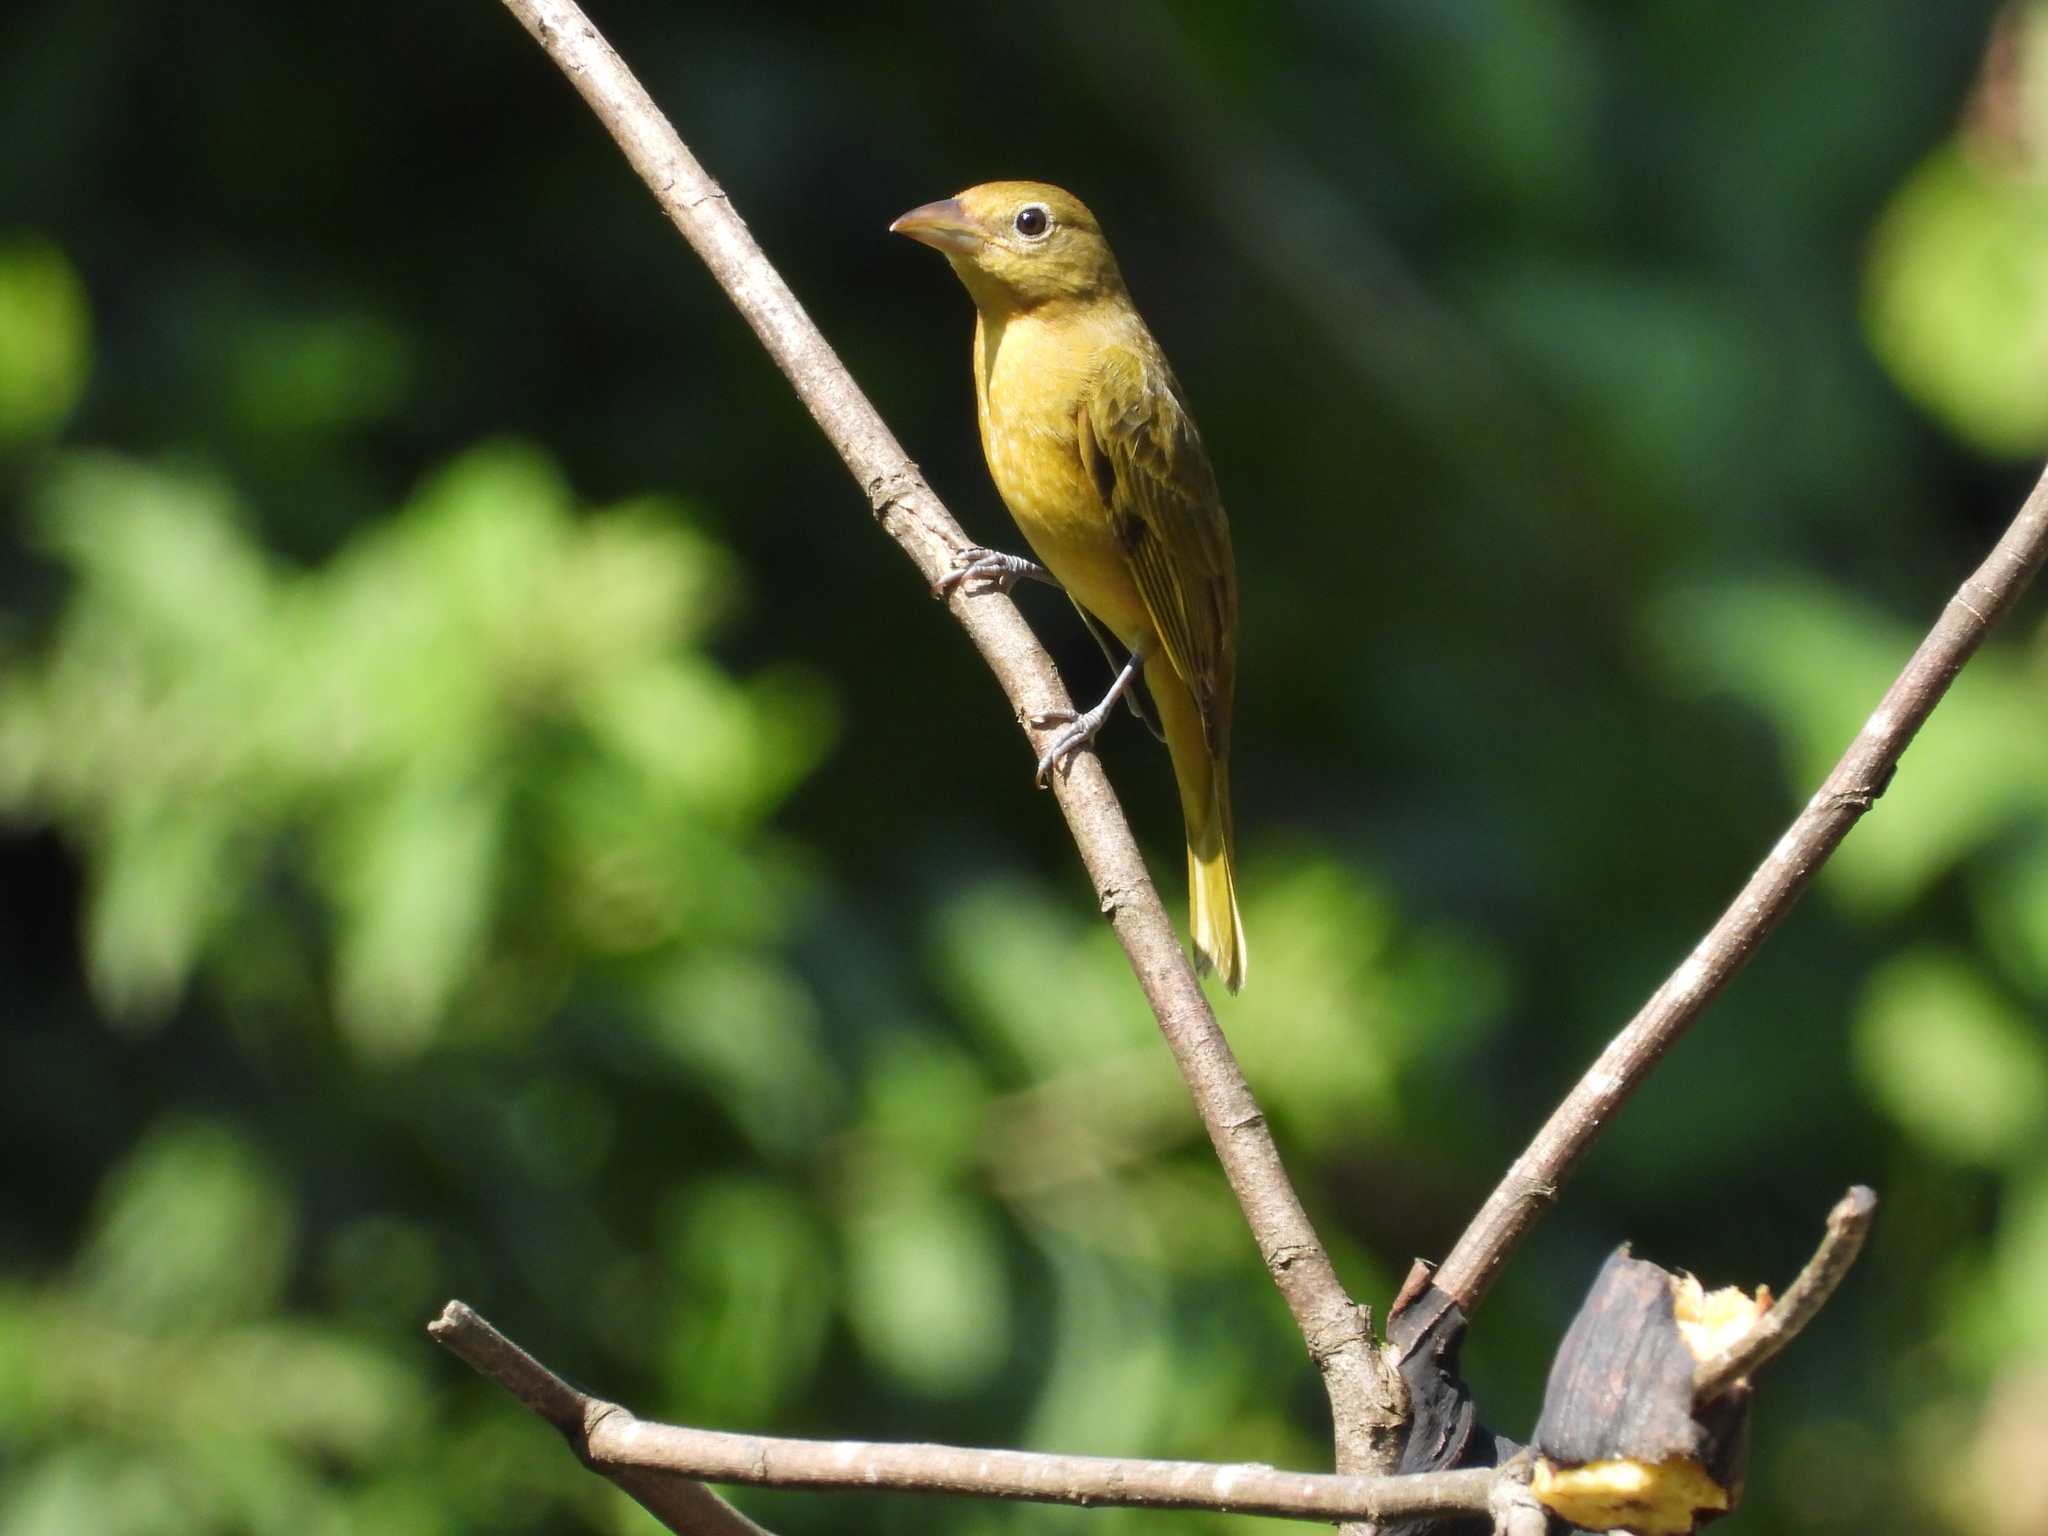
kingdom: Animalia
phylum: Chordata
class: Aves
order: Passeriformes
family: Cardinalidae
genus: Piranga
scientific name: Piranga rubra
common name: Summer tanager
